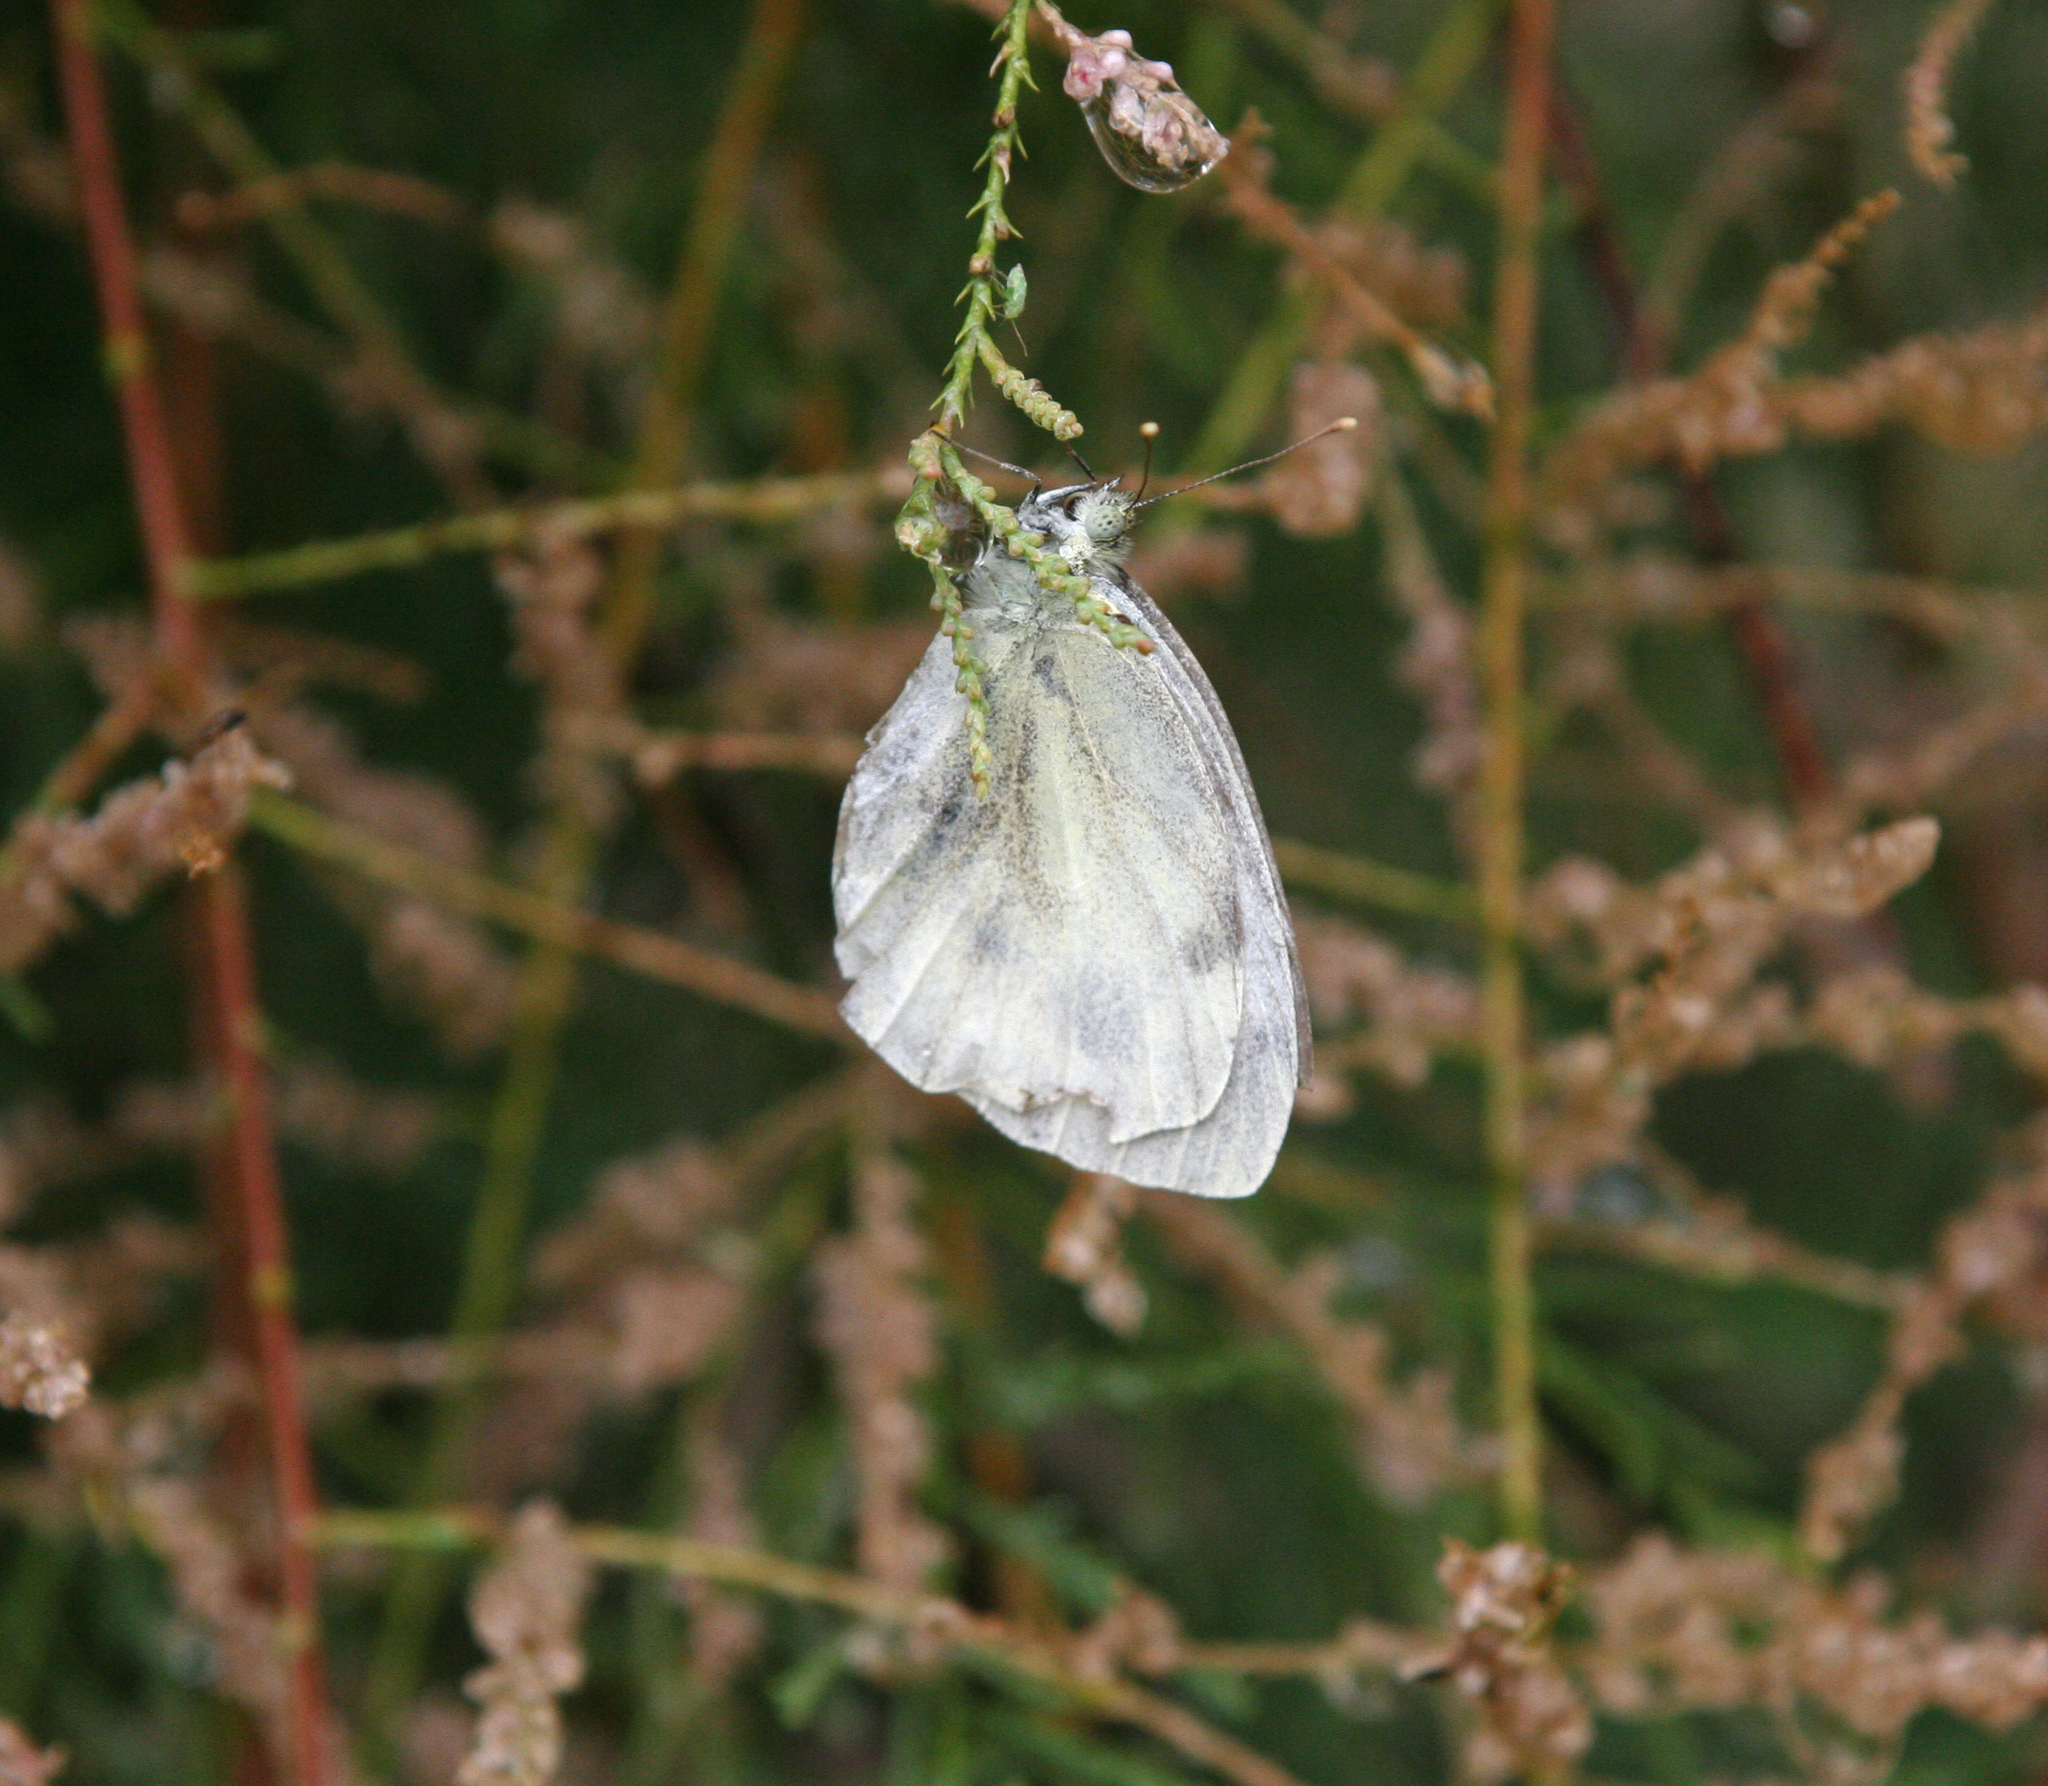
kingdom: Animalia
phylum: Arthropoda
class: Insecta
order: Lepidoptera
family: Pieridae
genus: Pieris
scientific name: Pieris napi
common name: Green-veined white
